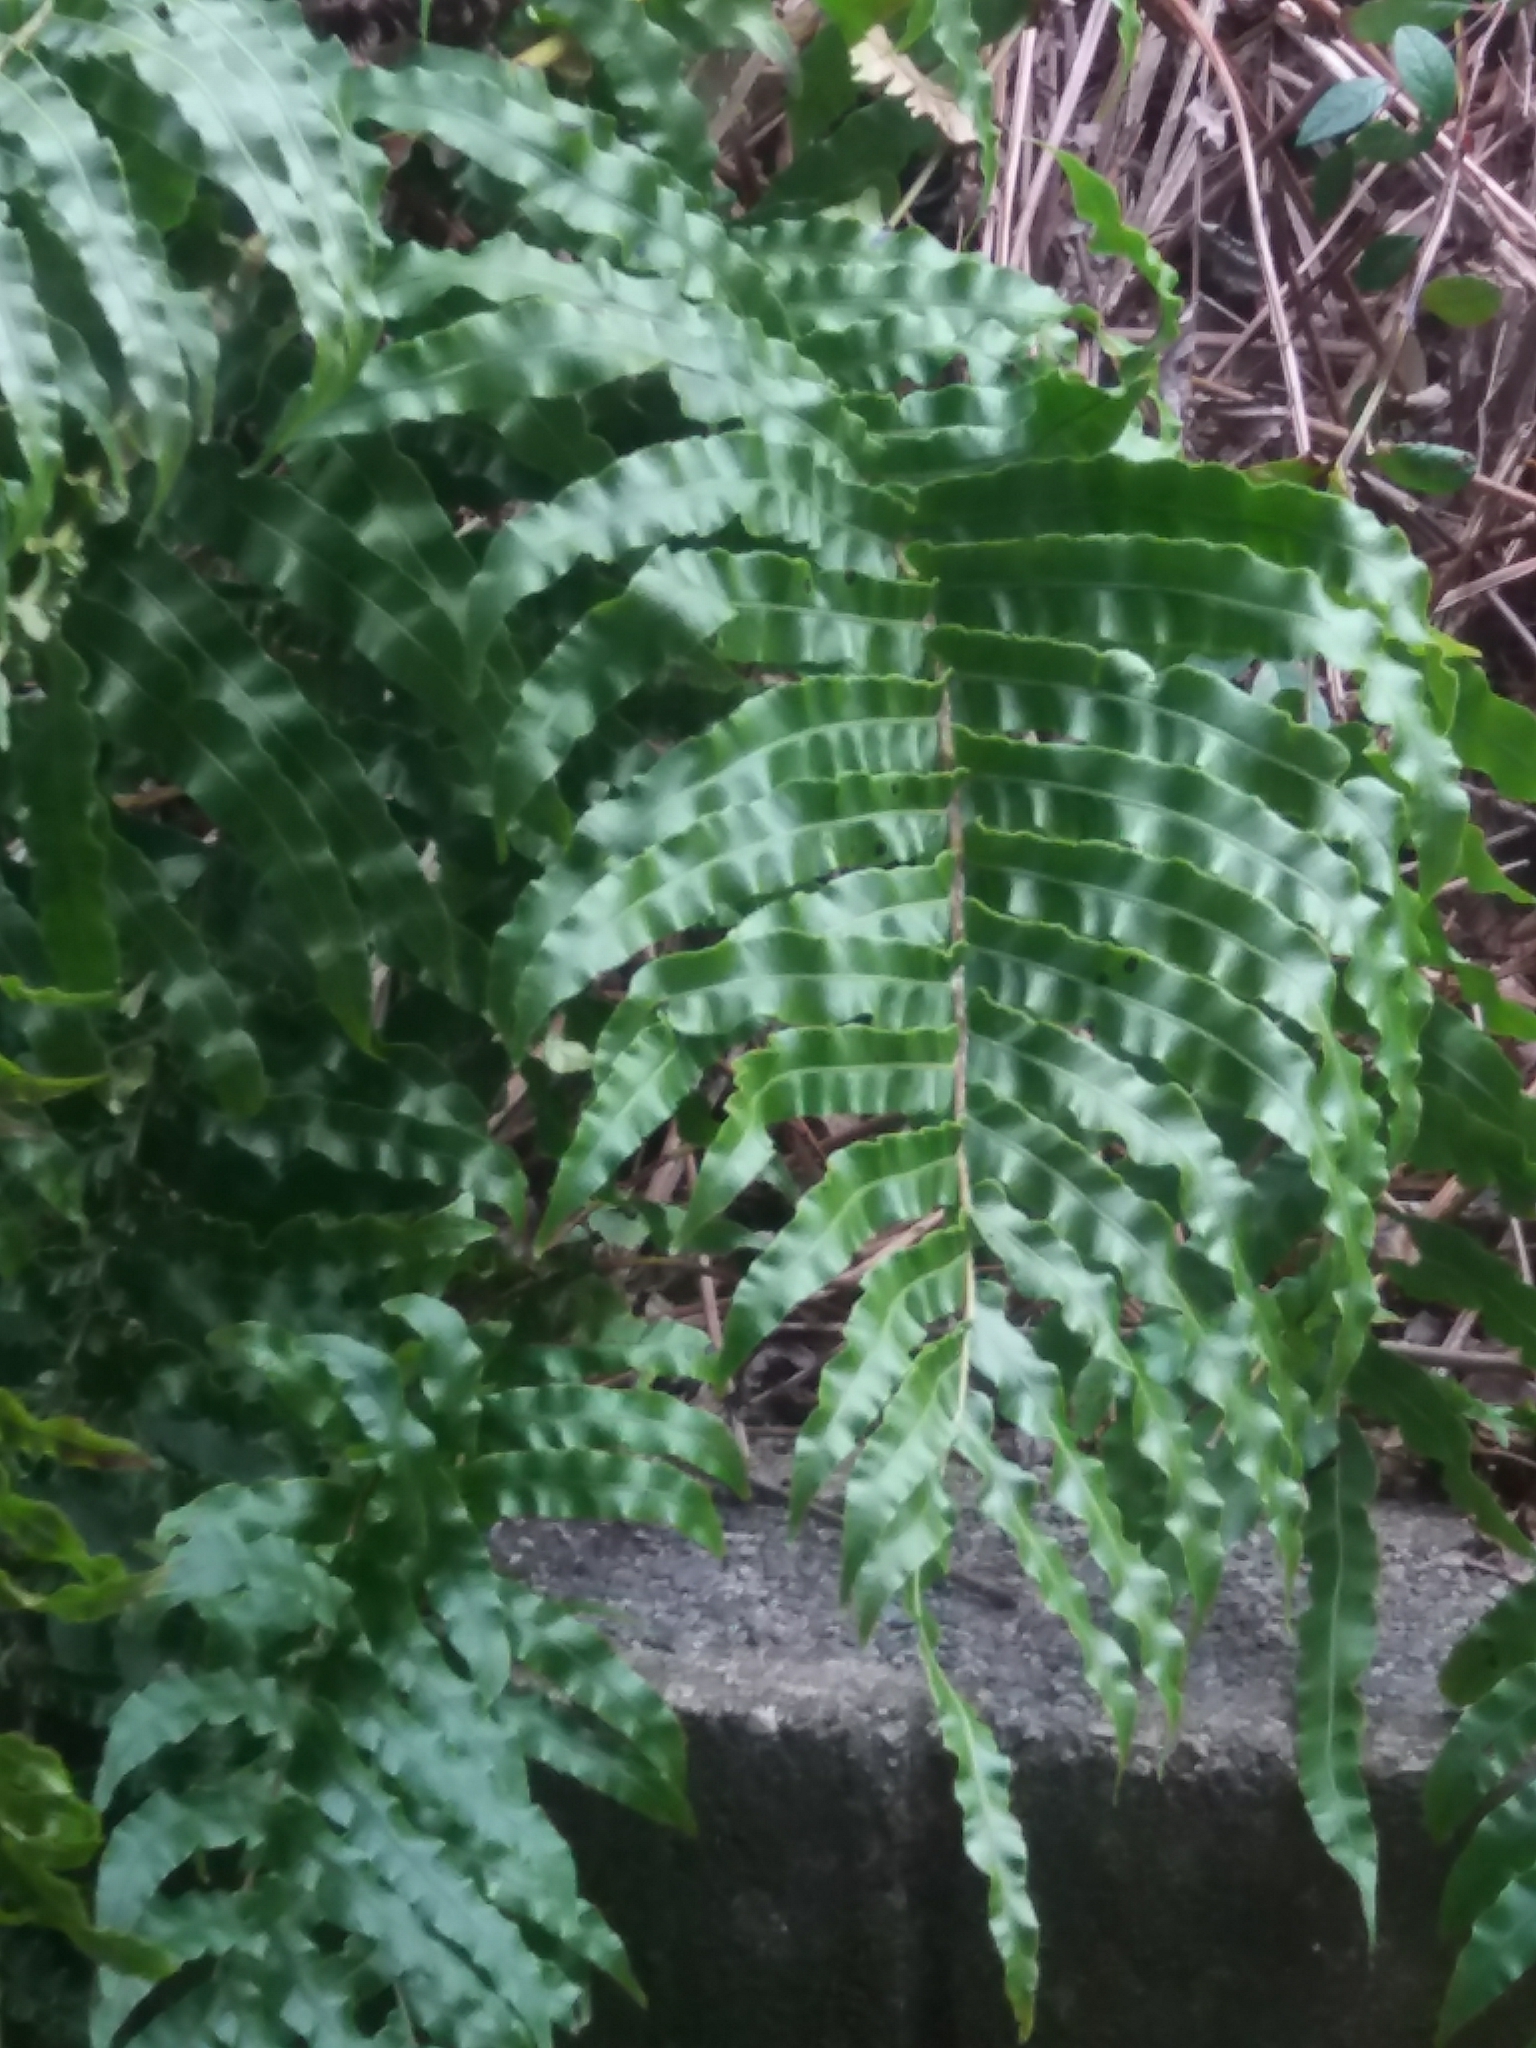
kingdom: Plantae
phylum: Tracheophyta
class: Polypodiopsida
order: Polypodiales
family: Blechnaceae
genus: Parablechnum
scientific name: Parablechnum novae-zelandiae
